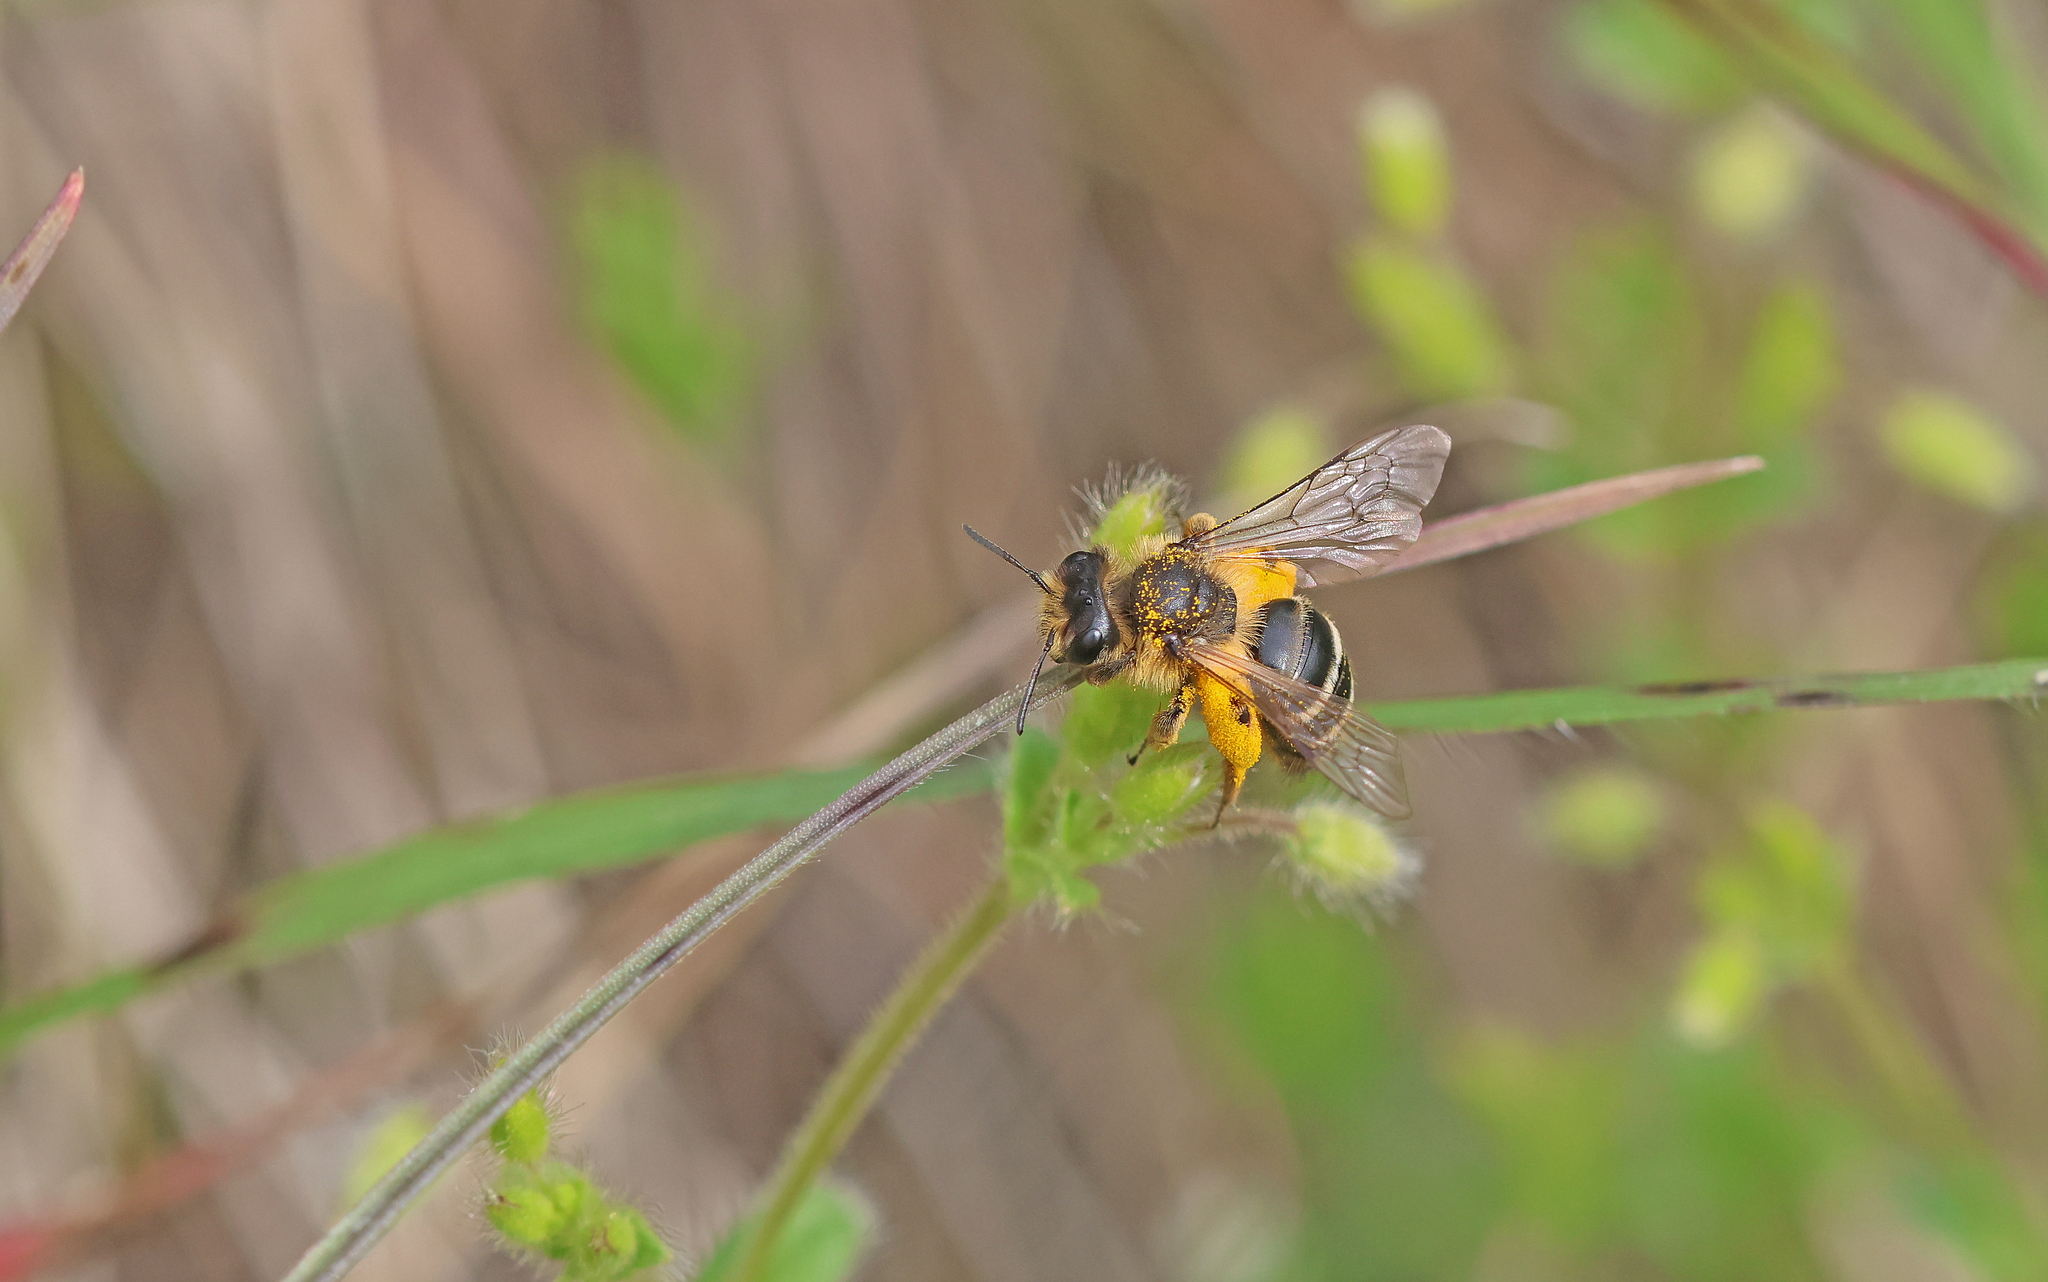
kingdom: Animalia
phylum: Arthropoda
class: Insecta
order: Hymenoptera
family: Andrenidae
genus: Andrena
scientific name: Andrena flavipes
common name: Yellow-legged mining bee
